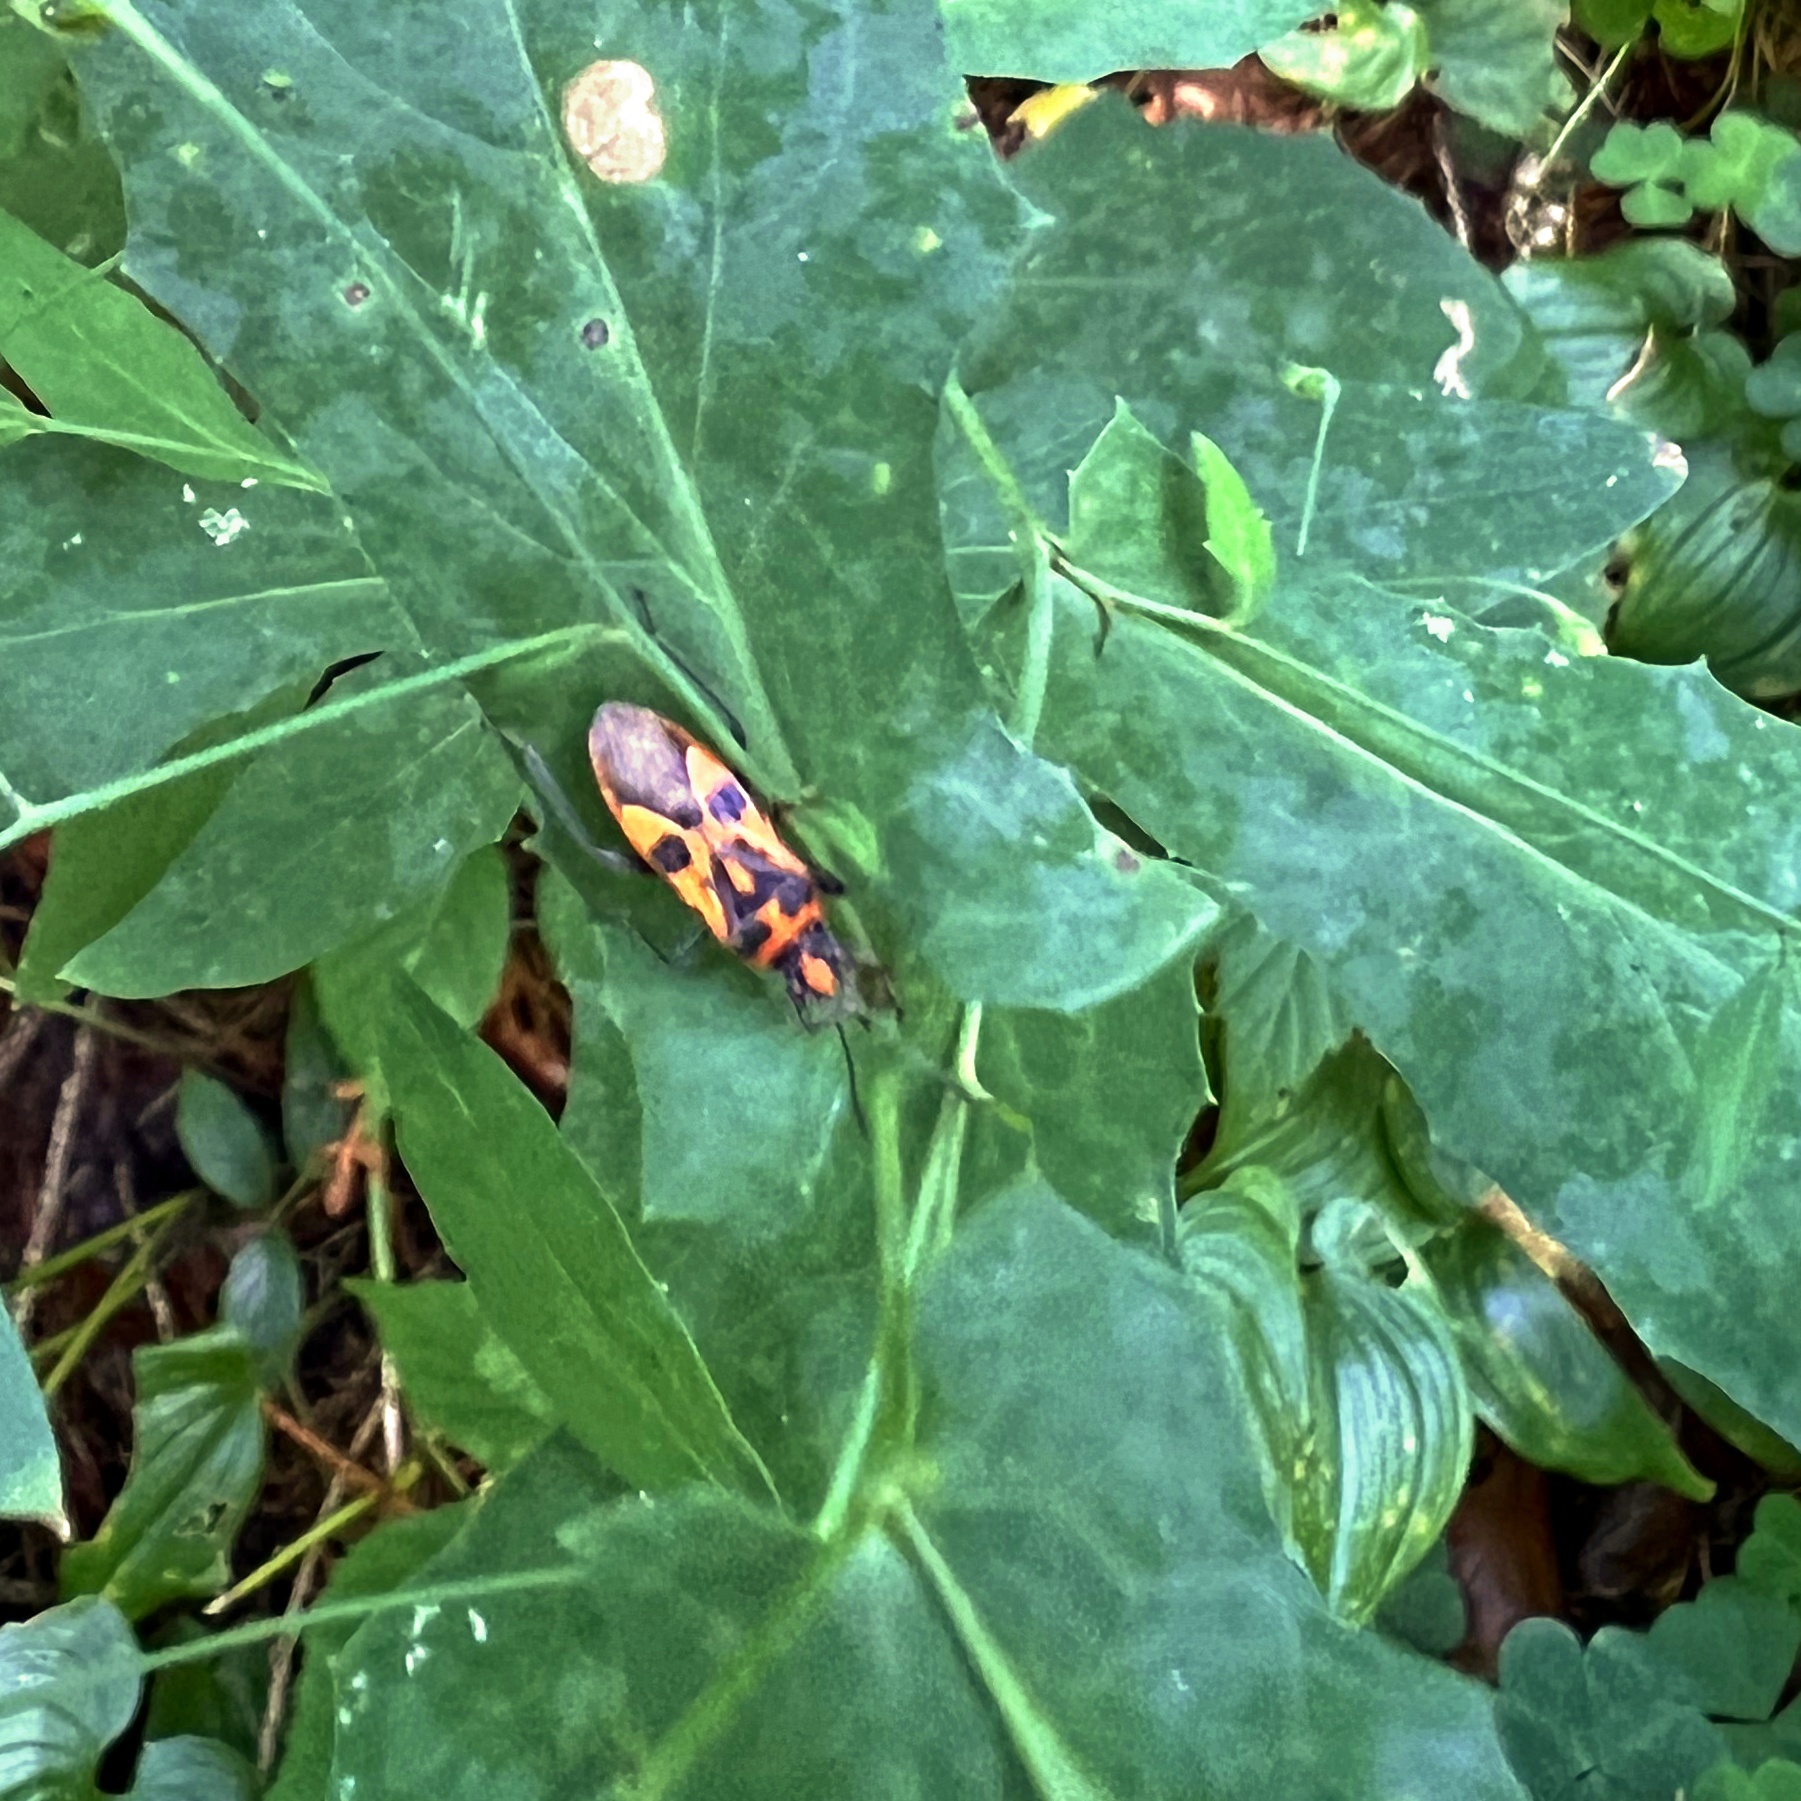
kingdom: Animalia
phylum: Arthropoda
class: Insecta
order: Hemiptera
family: Rhopalidae
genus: Corizus
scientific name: Corizus hyoscyami
